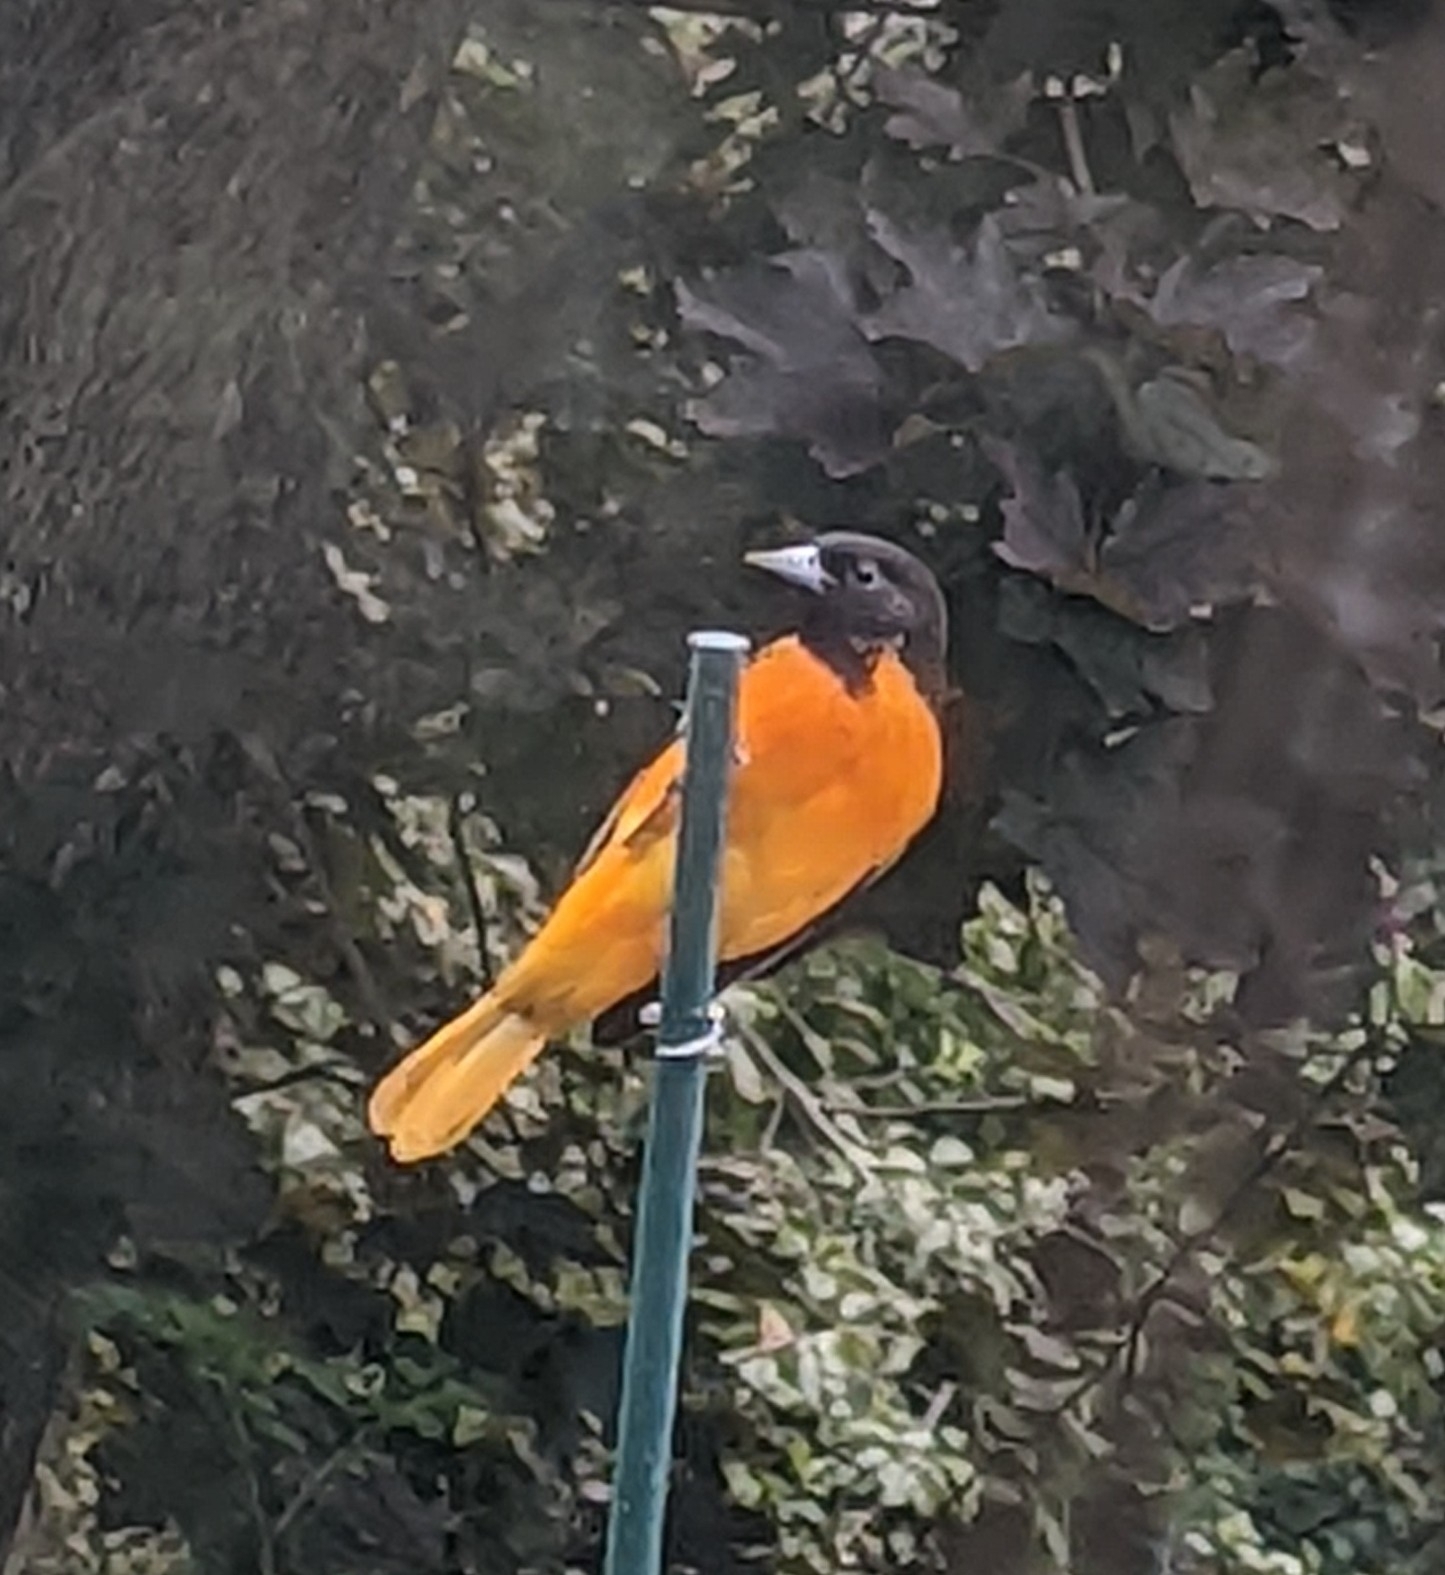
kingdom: Animalia
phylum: Chordata
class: Aves
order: Passeriformes
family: Icteridae
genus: Icterus
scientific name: Icterus galbula
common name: Baltimore oriole
